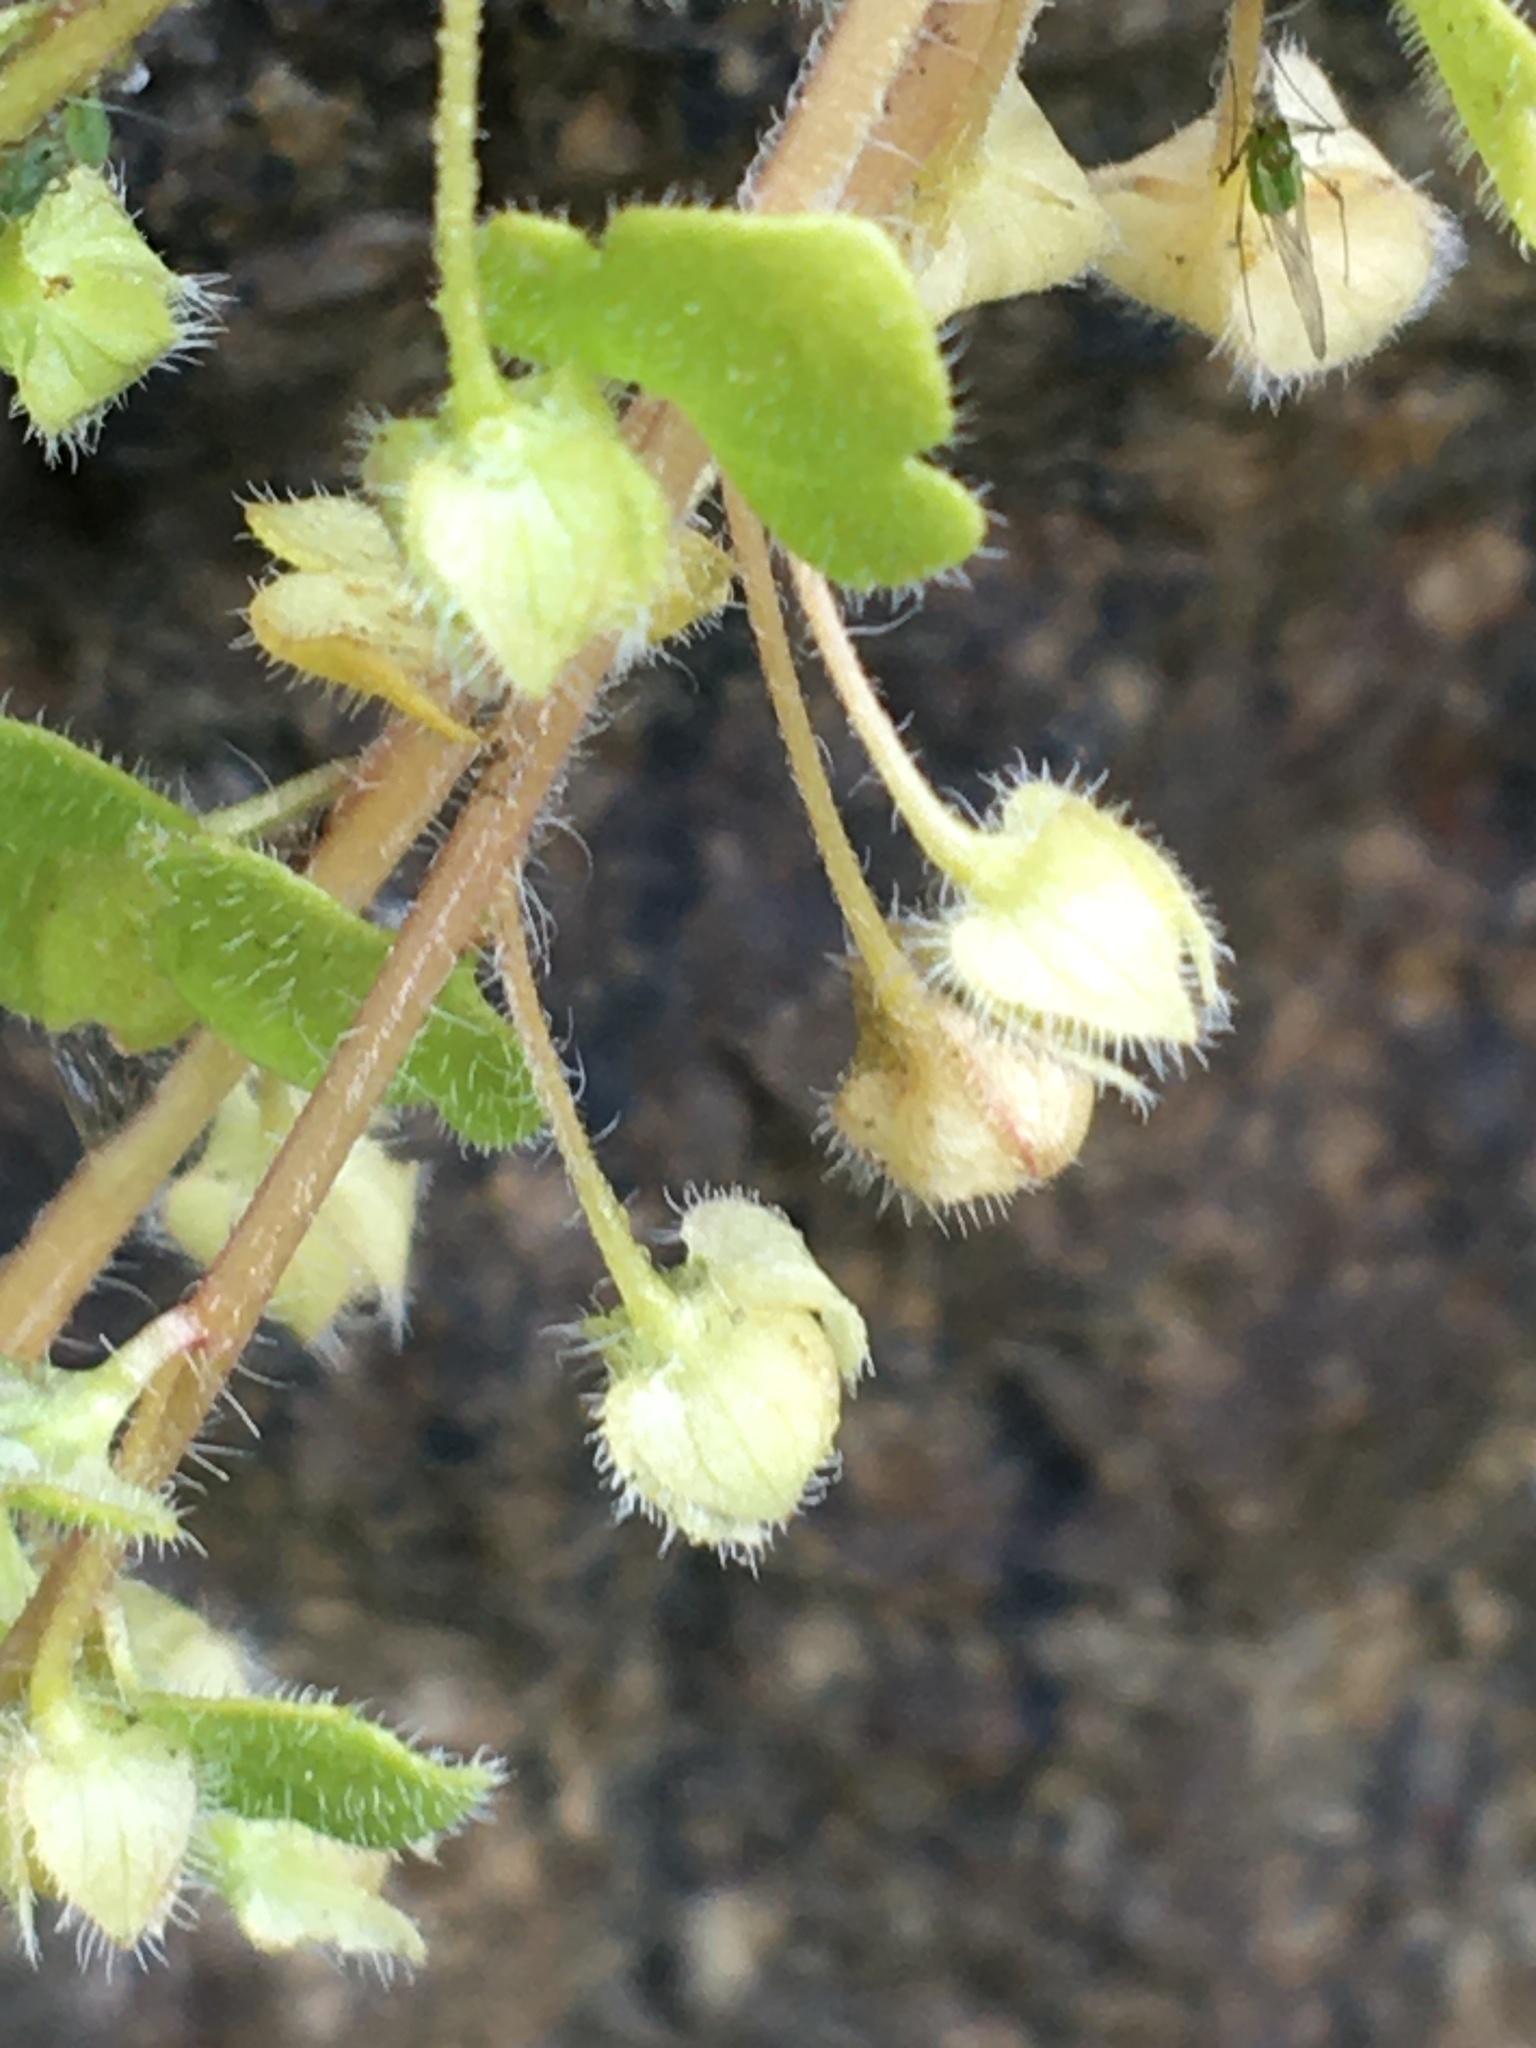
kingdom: Plantae
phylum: Tracheophyta
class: Magnoliopsida
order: Lamiales
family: Plantaginaceae
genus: Veronica
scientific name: Veronica sublobata
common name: False ivy-leaved speedwell
